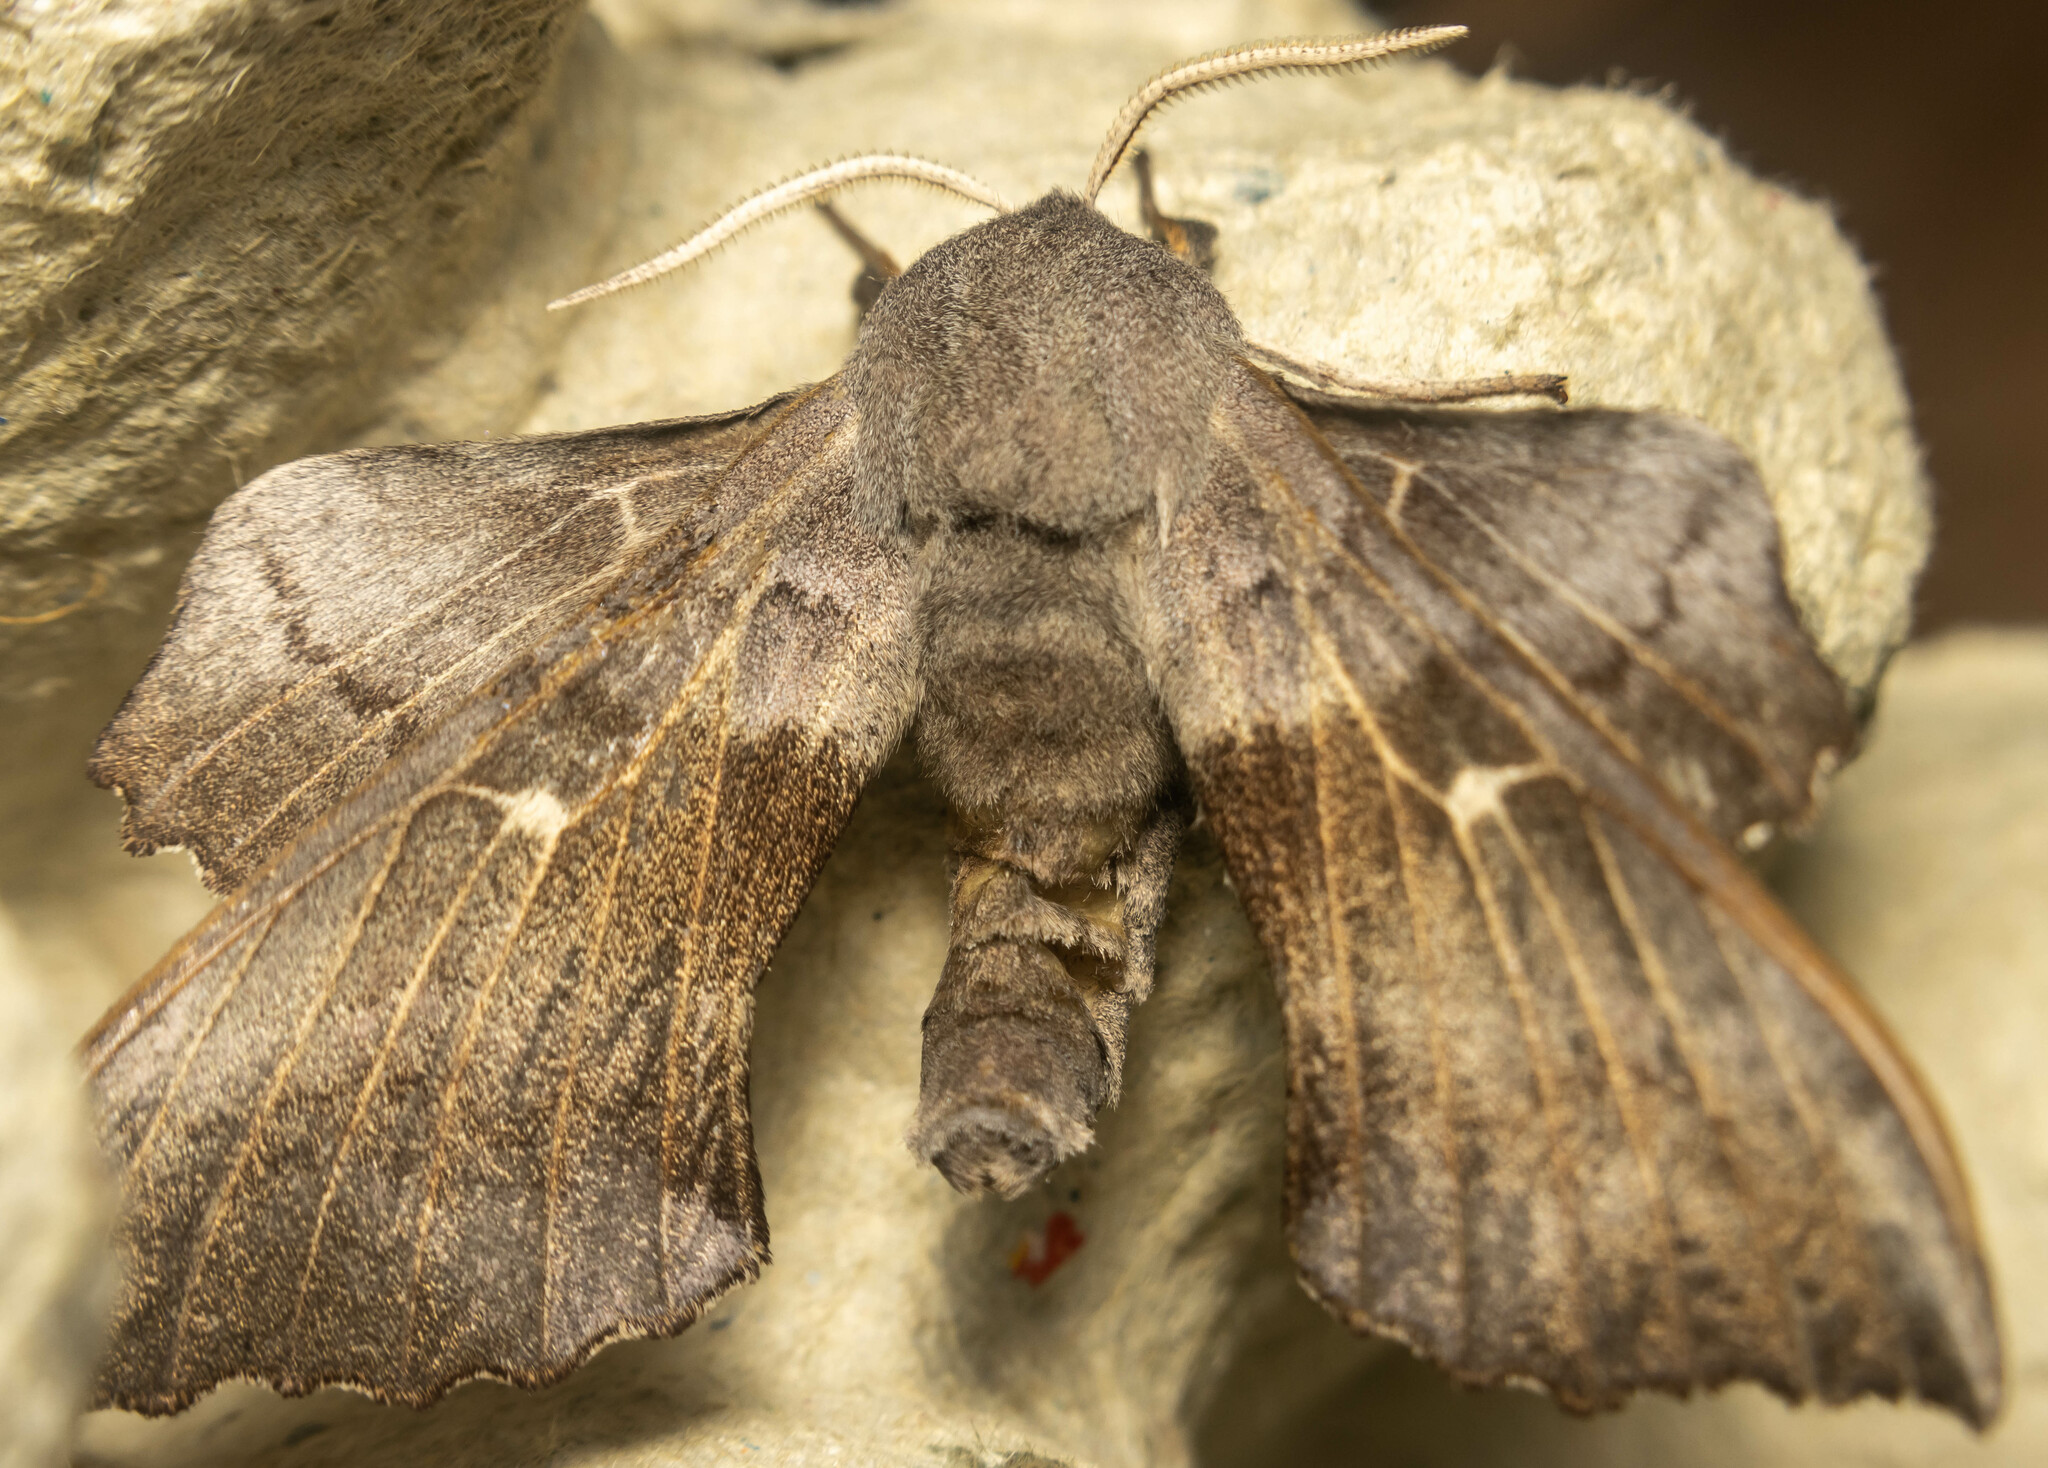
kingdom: Animalia
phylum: Arthropoda
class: Insecta
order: Lepidoptera
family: Sphingidae
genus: Laothoe
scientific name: Laothoe populi
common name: Poplar hawk-moth
